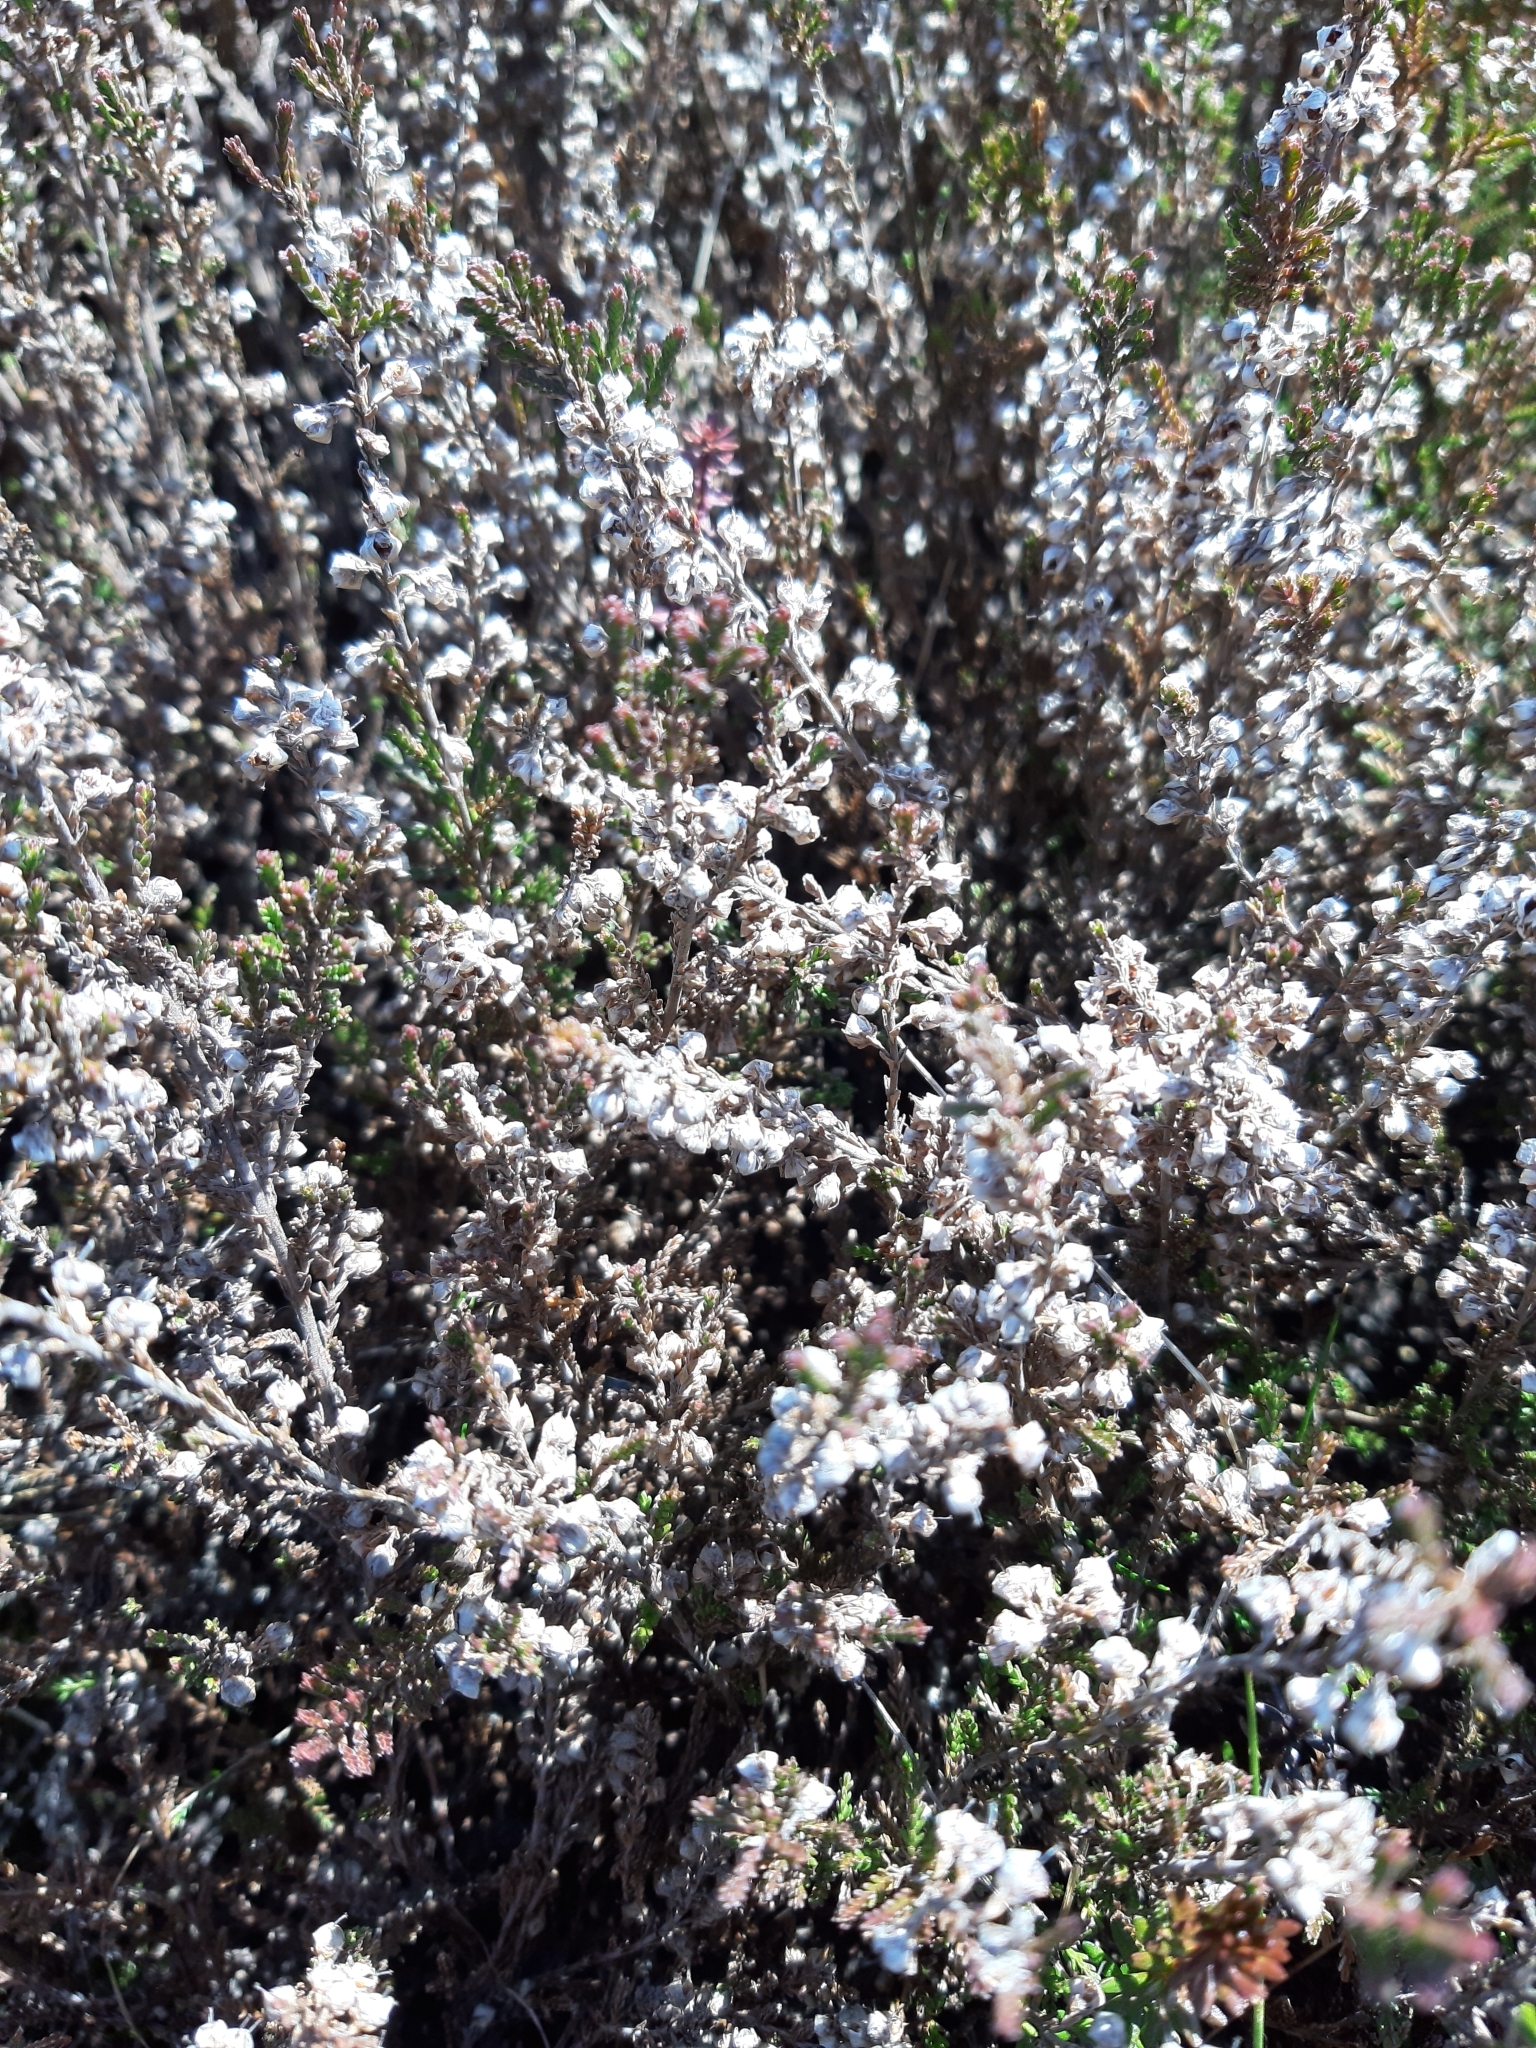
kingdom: Plantae
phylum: Tracheophyta
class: Magnoliopsida
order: Ericales
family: Ericaceae
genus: Calluna
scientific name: Calluna vulgaris
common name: Heather
